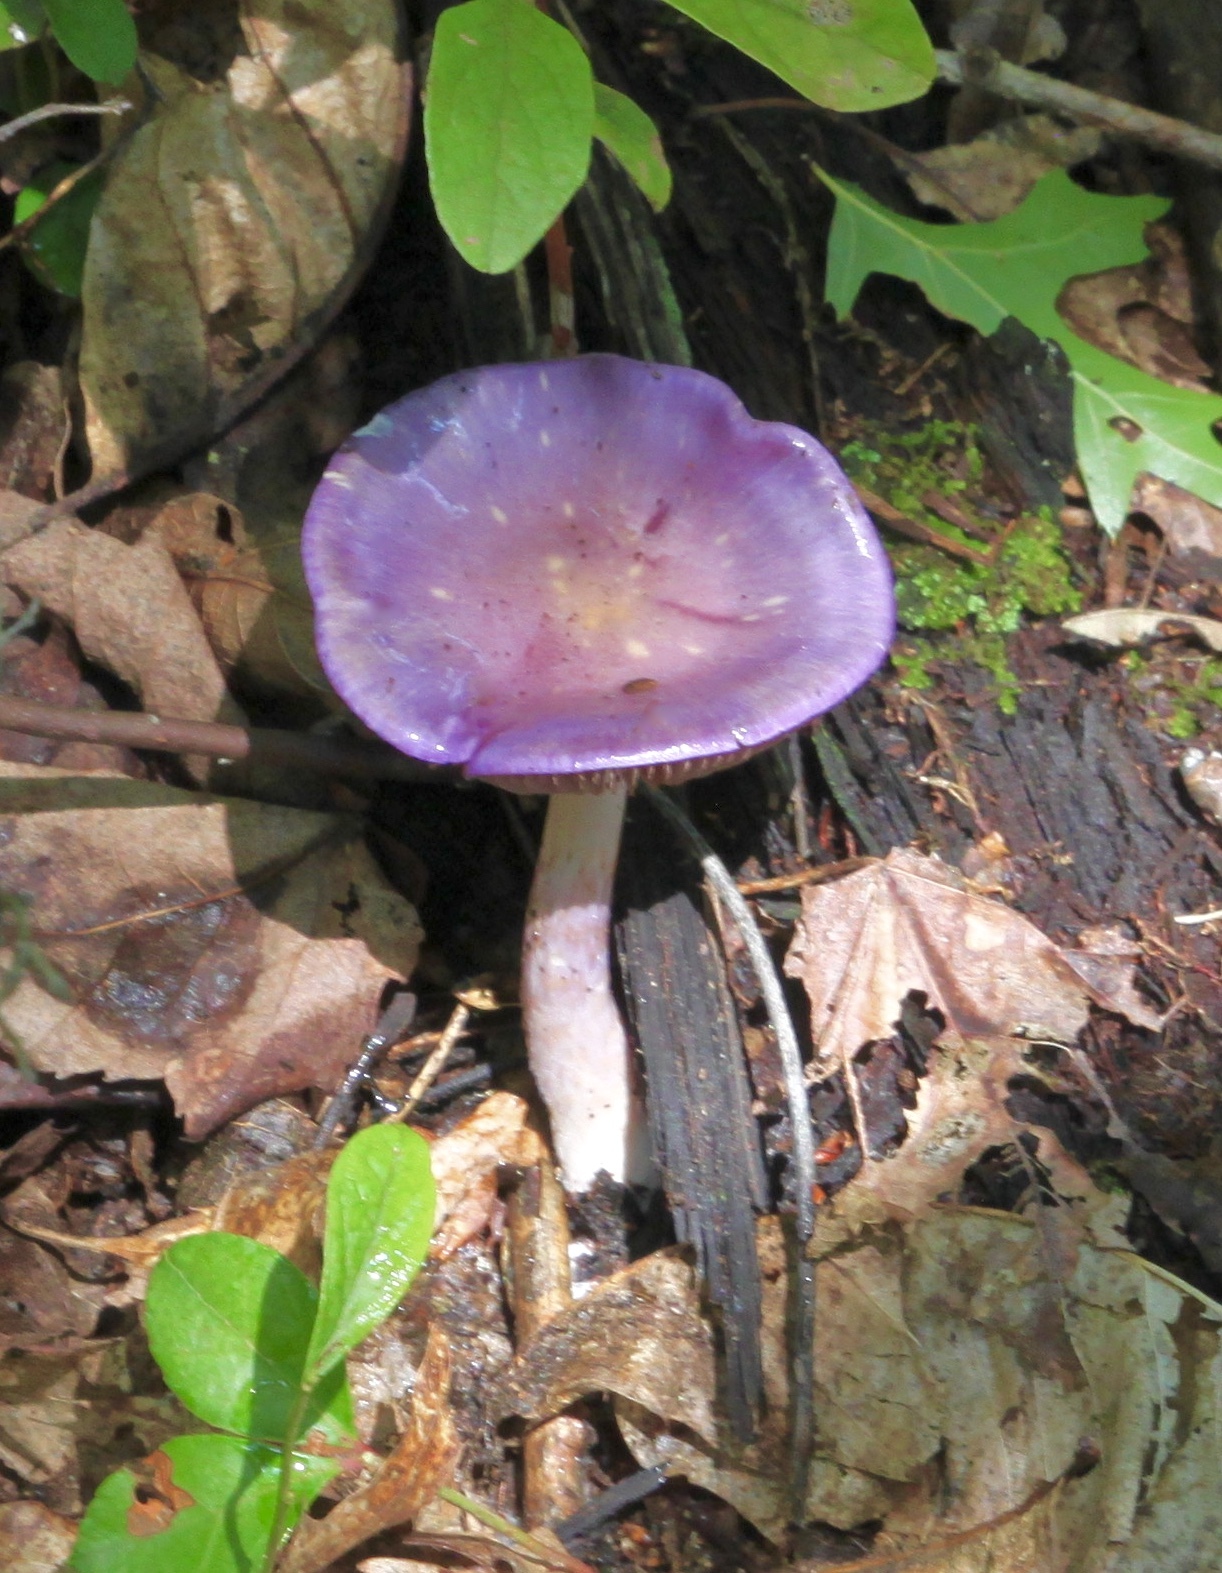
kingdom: Fungi
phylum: Basidiomycota
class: Agaricomycetes
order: Agaricales
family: Cortinariaceae
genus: Cortinarius
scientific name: Cortinarius iodes
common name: Viscid violet cort
